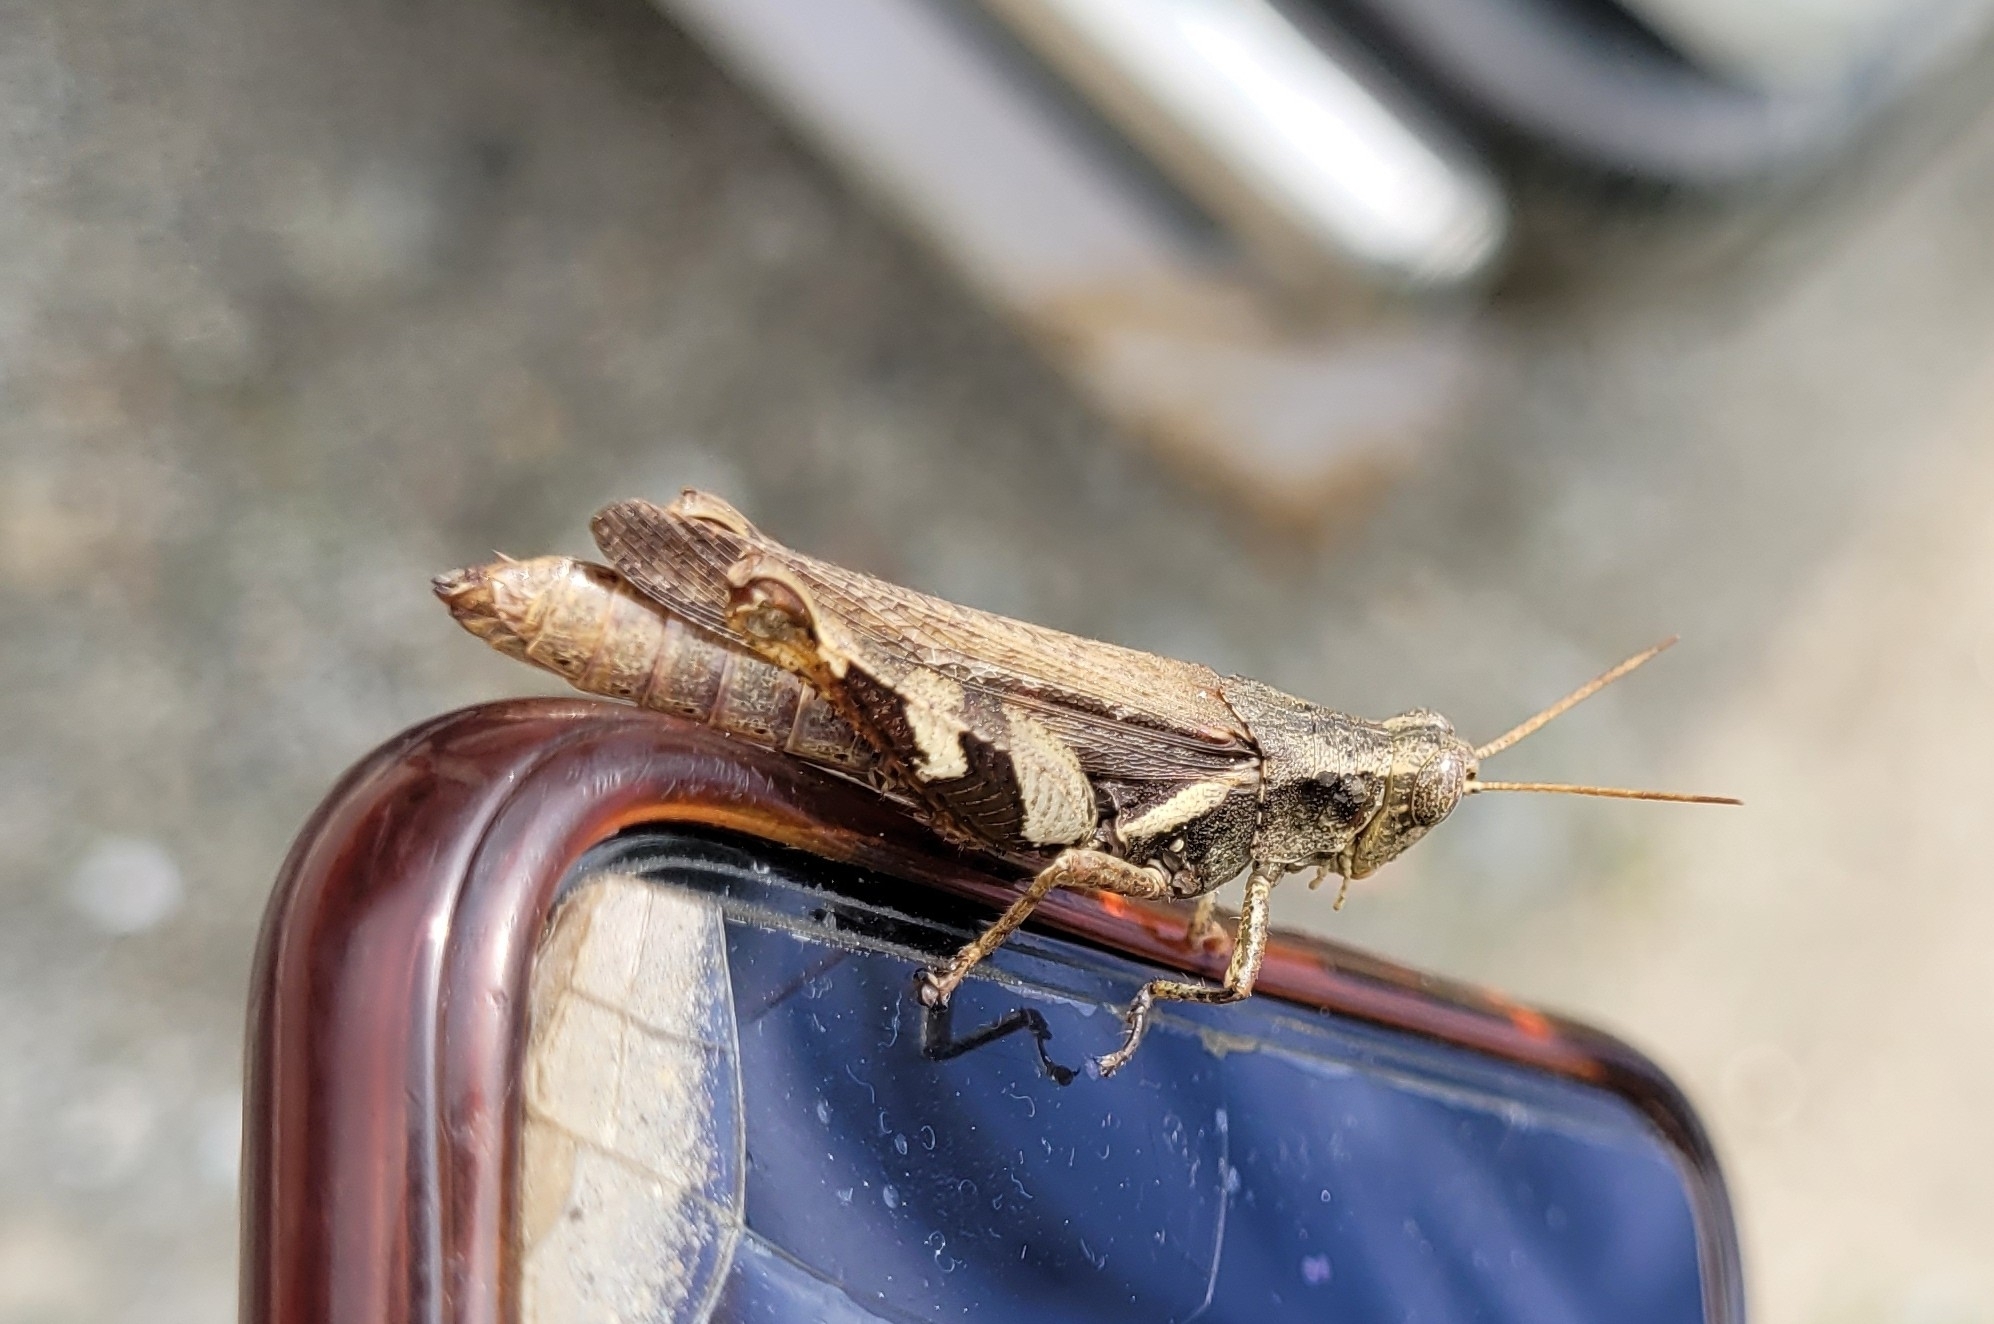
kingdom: Animalia
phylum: Arthropoda
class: Insecta
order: Orthoptera
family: Acrididae
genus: Xenocatantops
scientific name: Xenocatantops brachycerus
